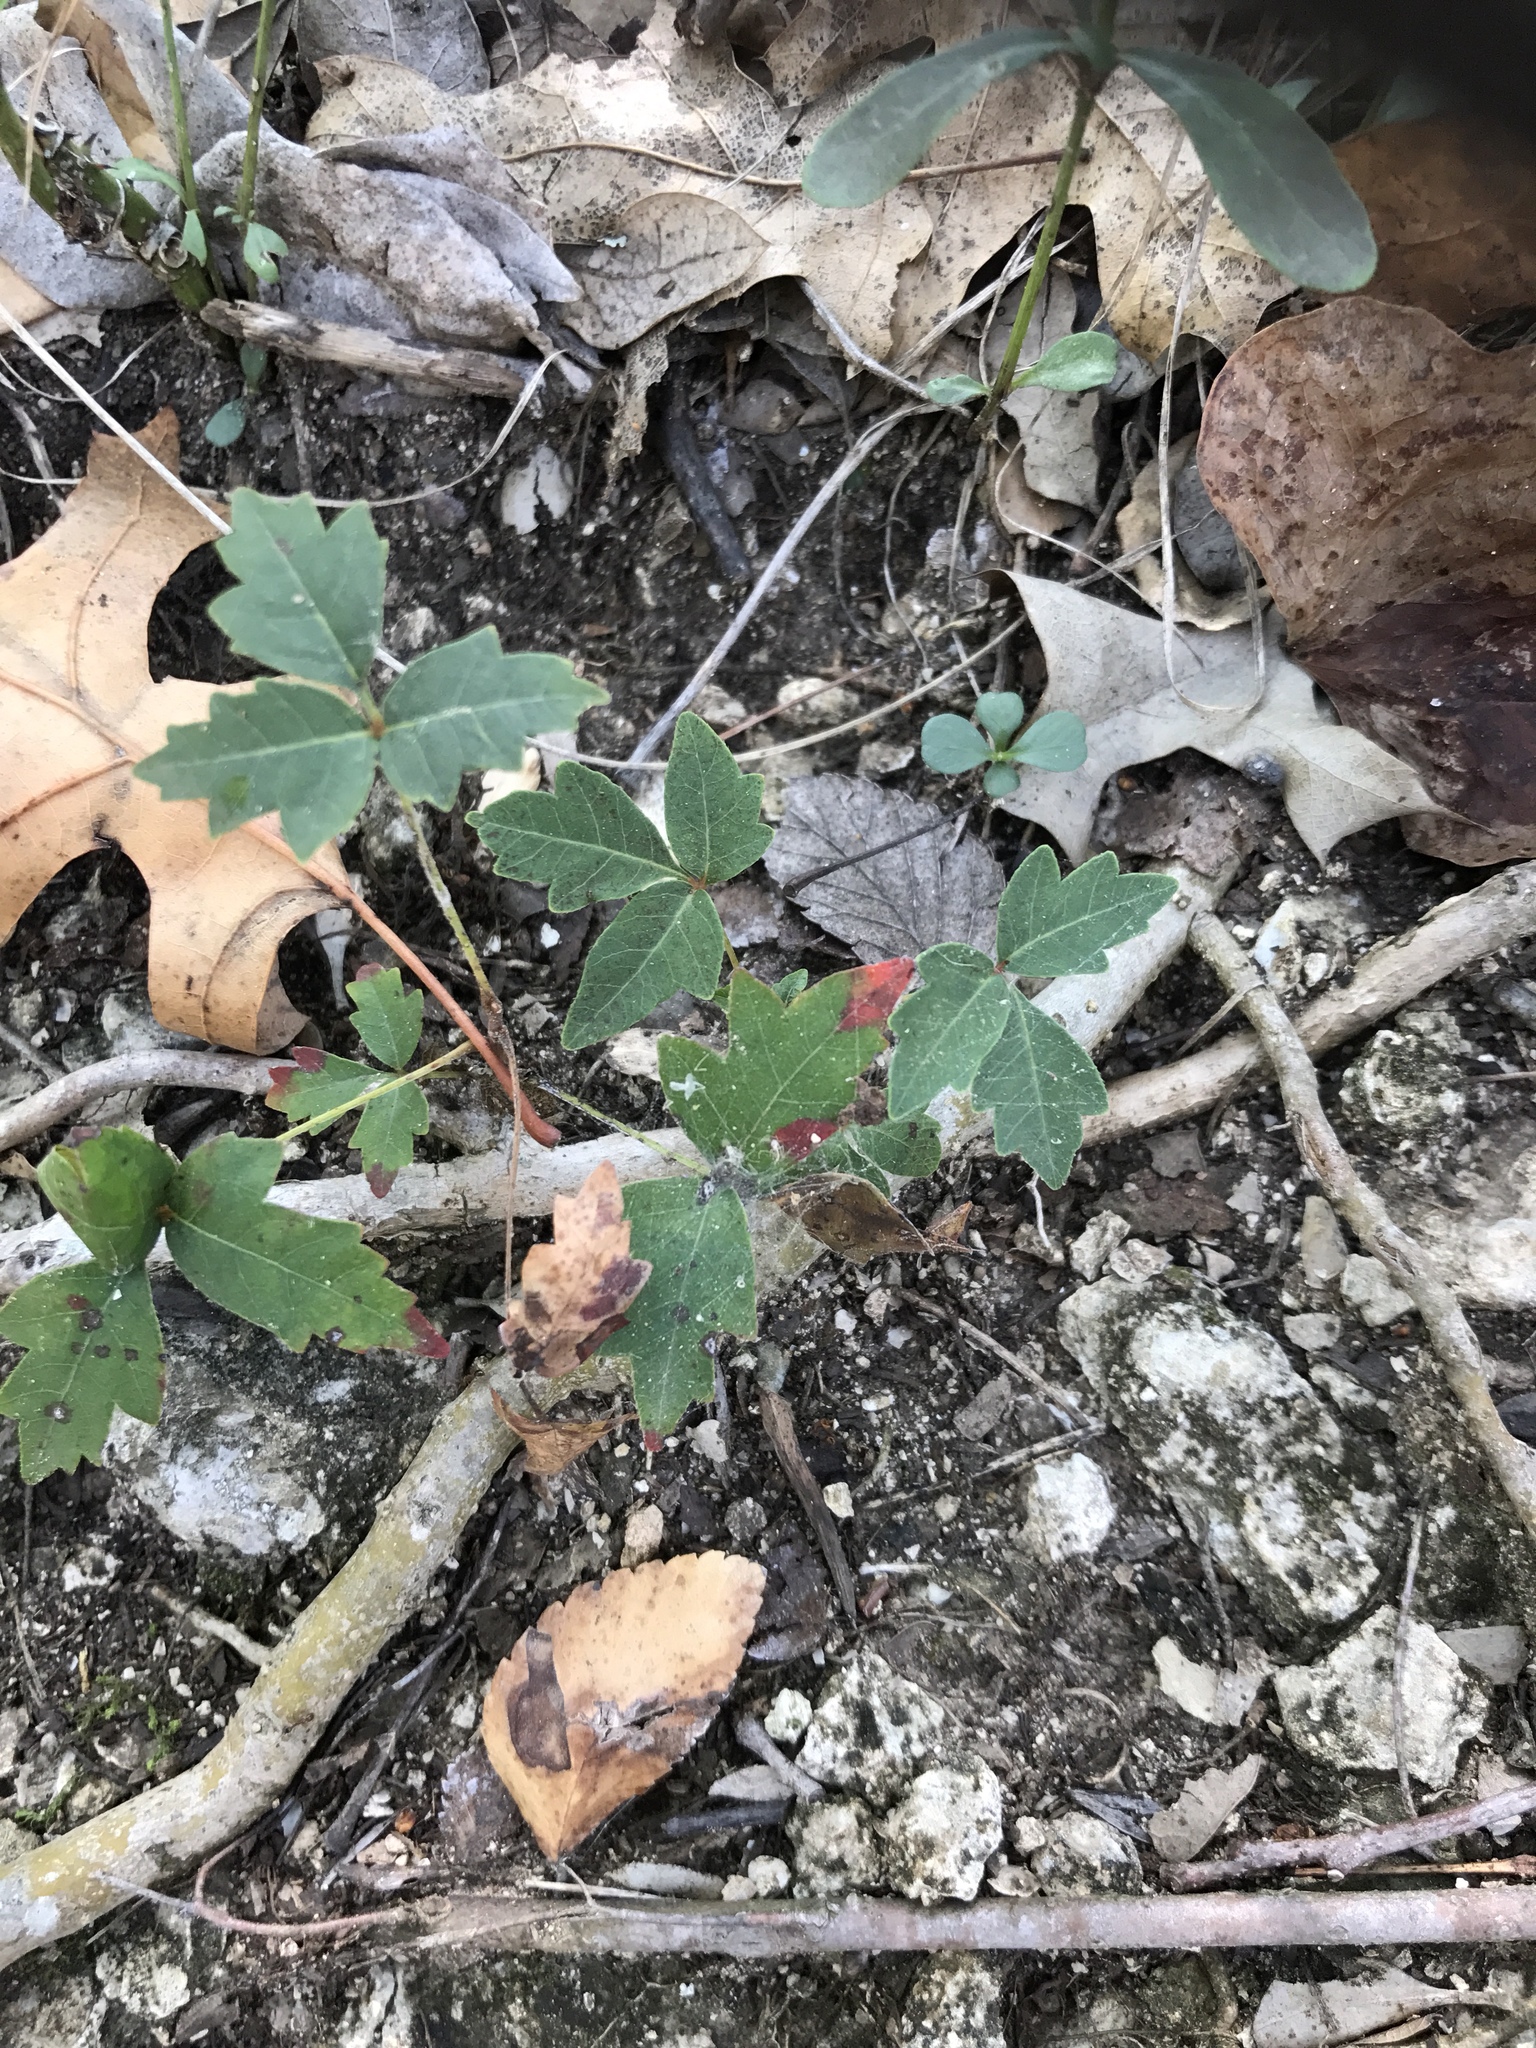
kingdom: Plantae
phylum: Tracheophyta
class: Magnoliopsida
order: Sapindales
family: Anacardiaceae
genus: Toxicodendron
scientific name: Toxicodendron radicans
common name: Poison ivy
